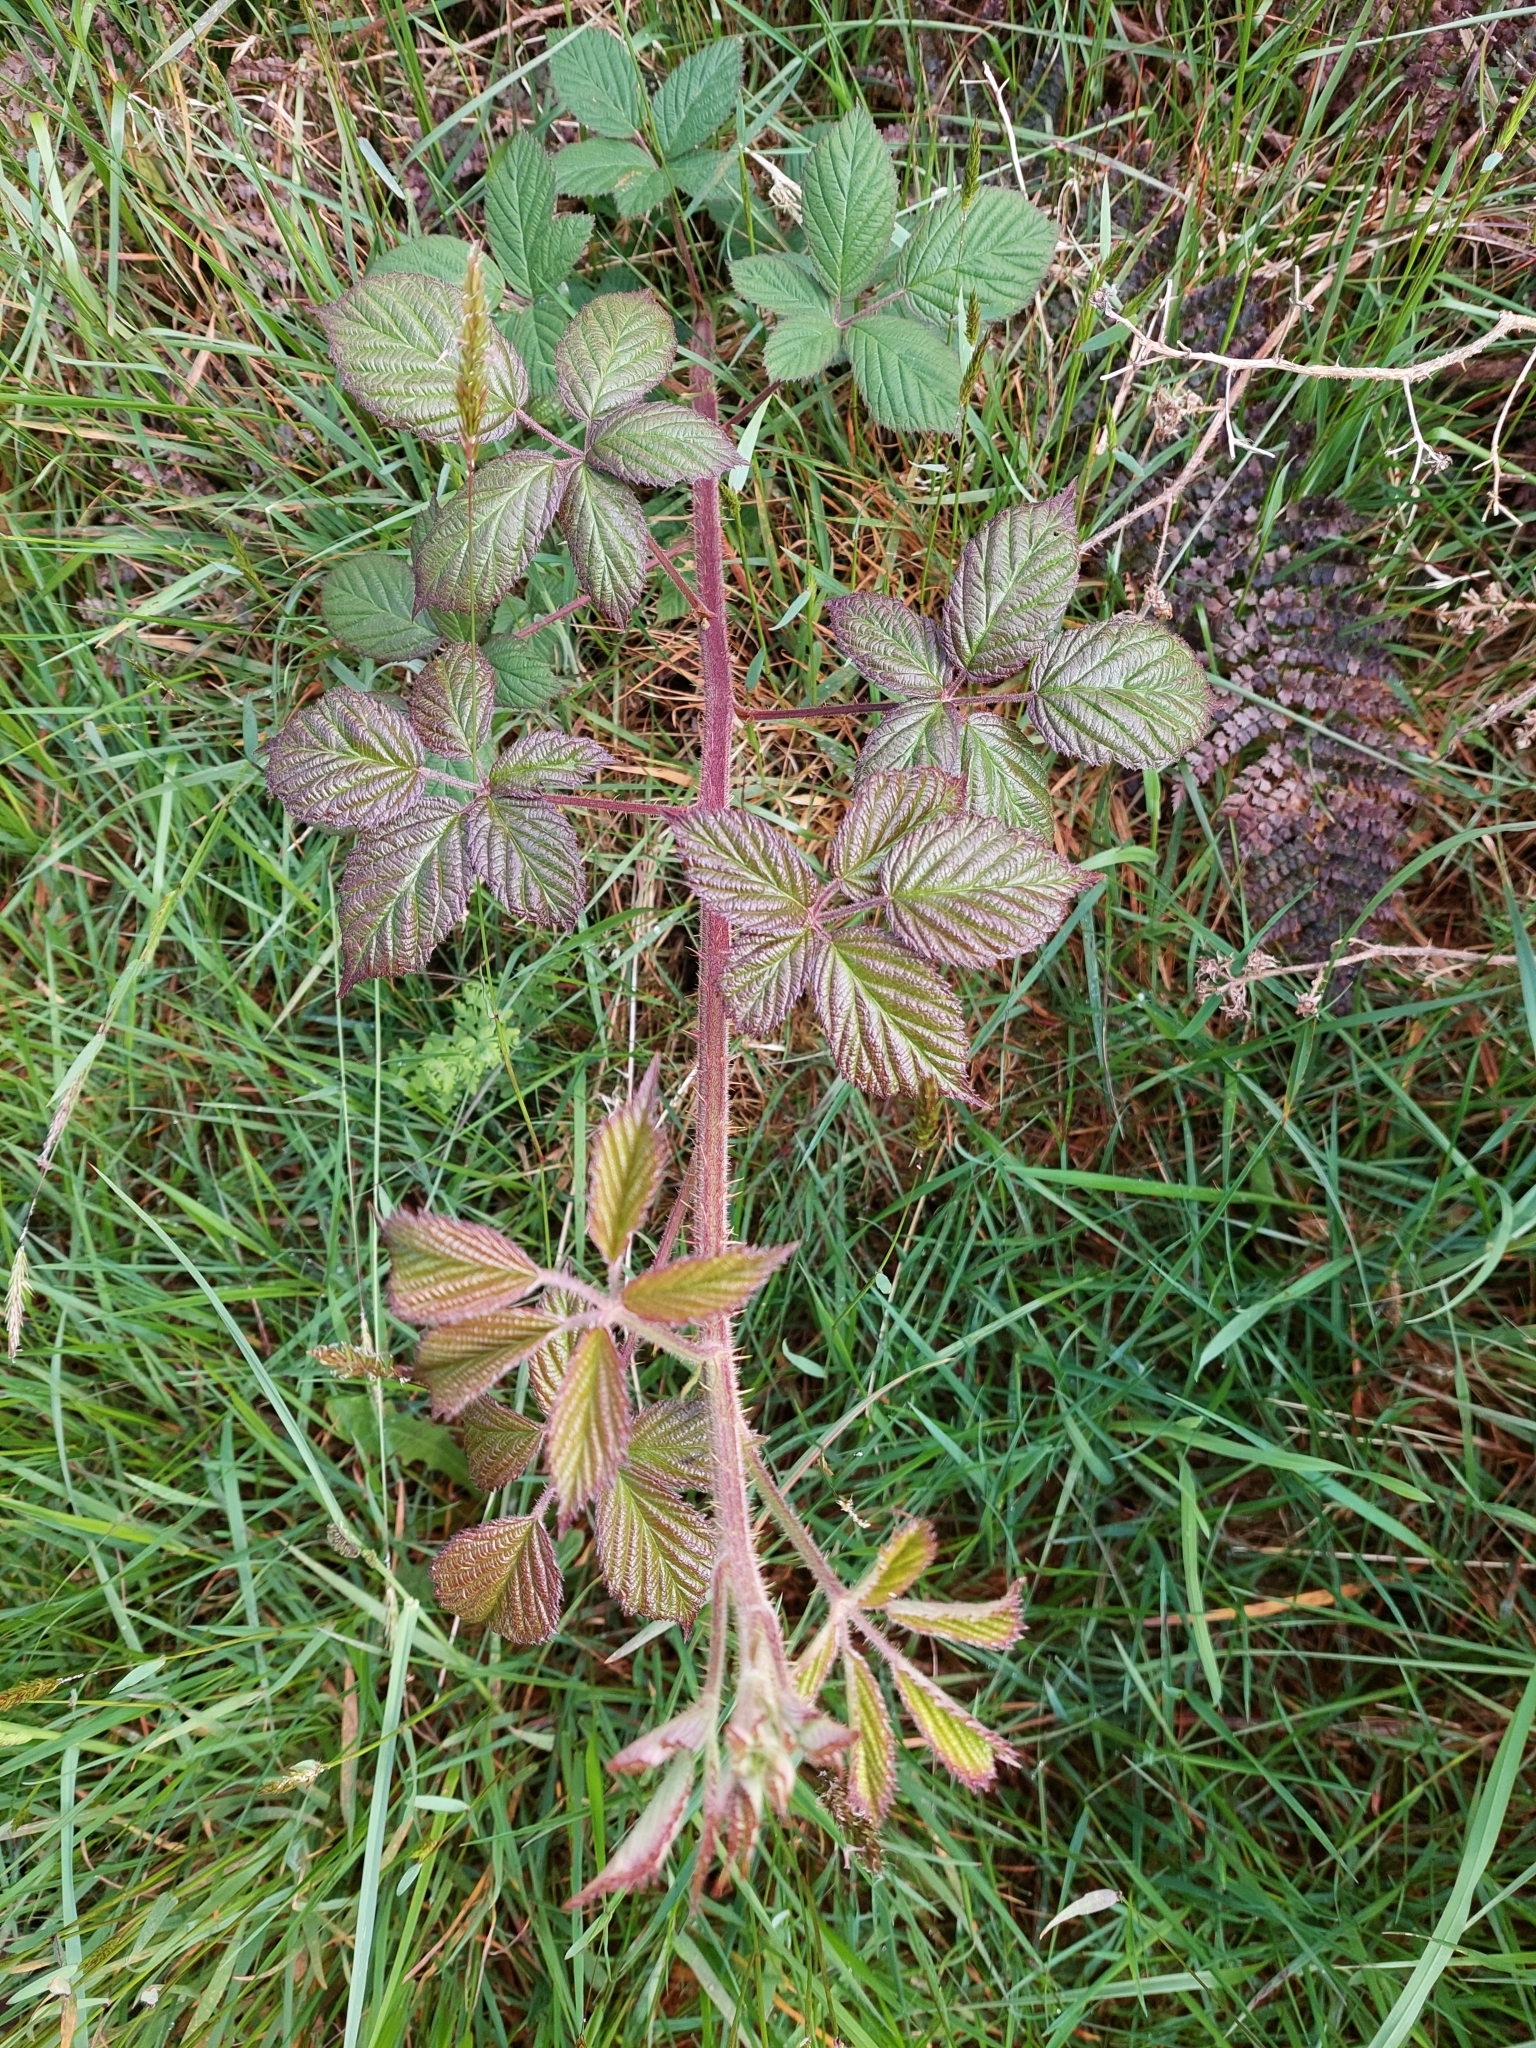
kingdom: Plantae
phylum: Tracheophyta
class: Magnoliopsida
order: Rosales
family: Rosaceae
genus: Rubus
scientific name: Rubus fruticosus
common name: Blackberry, bramble
